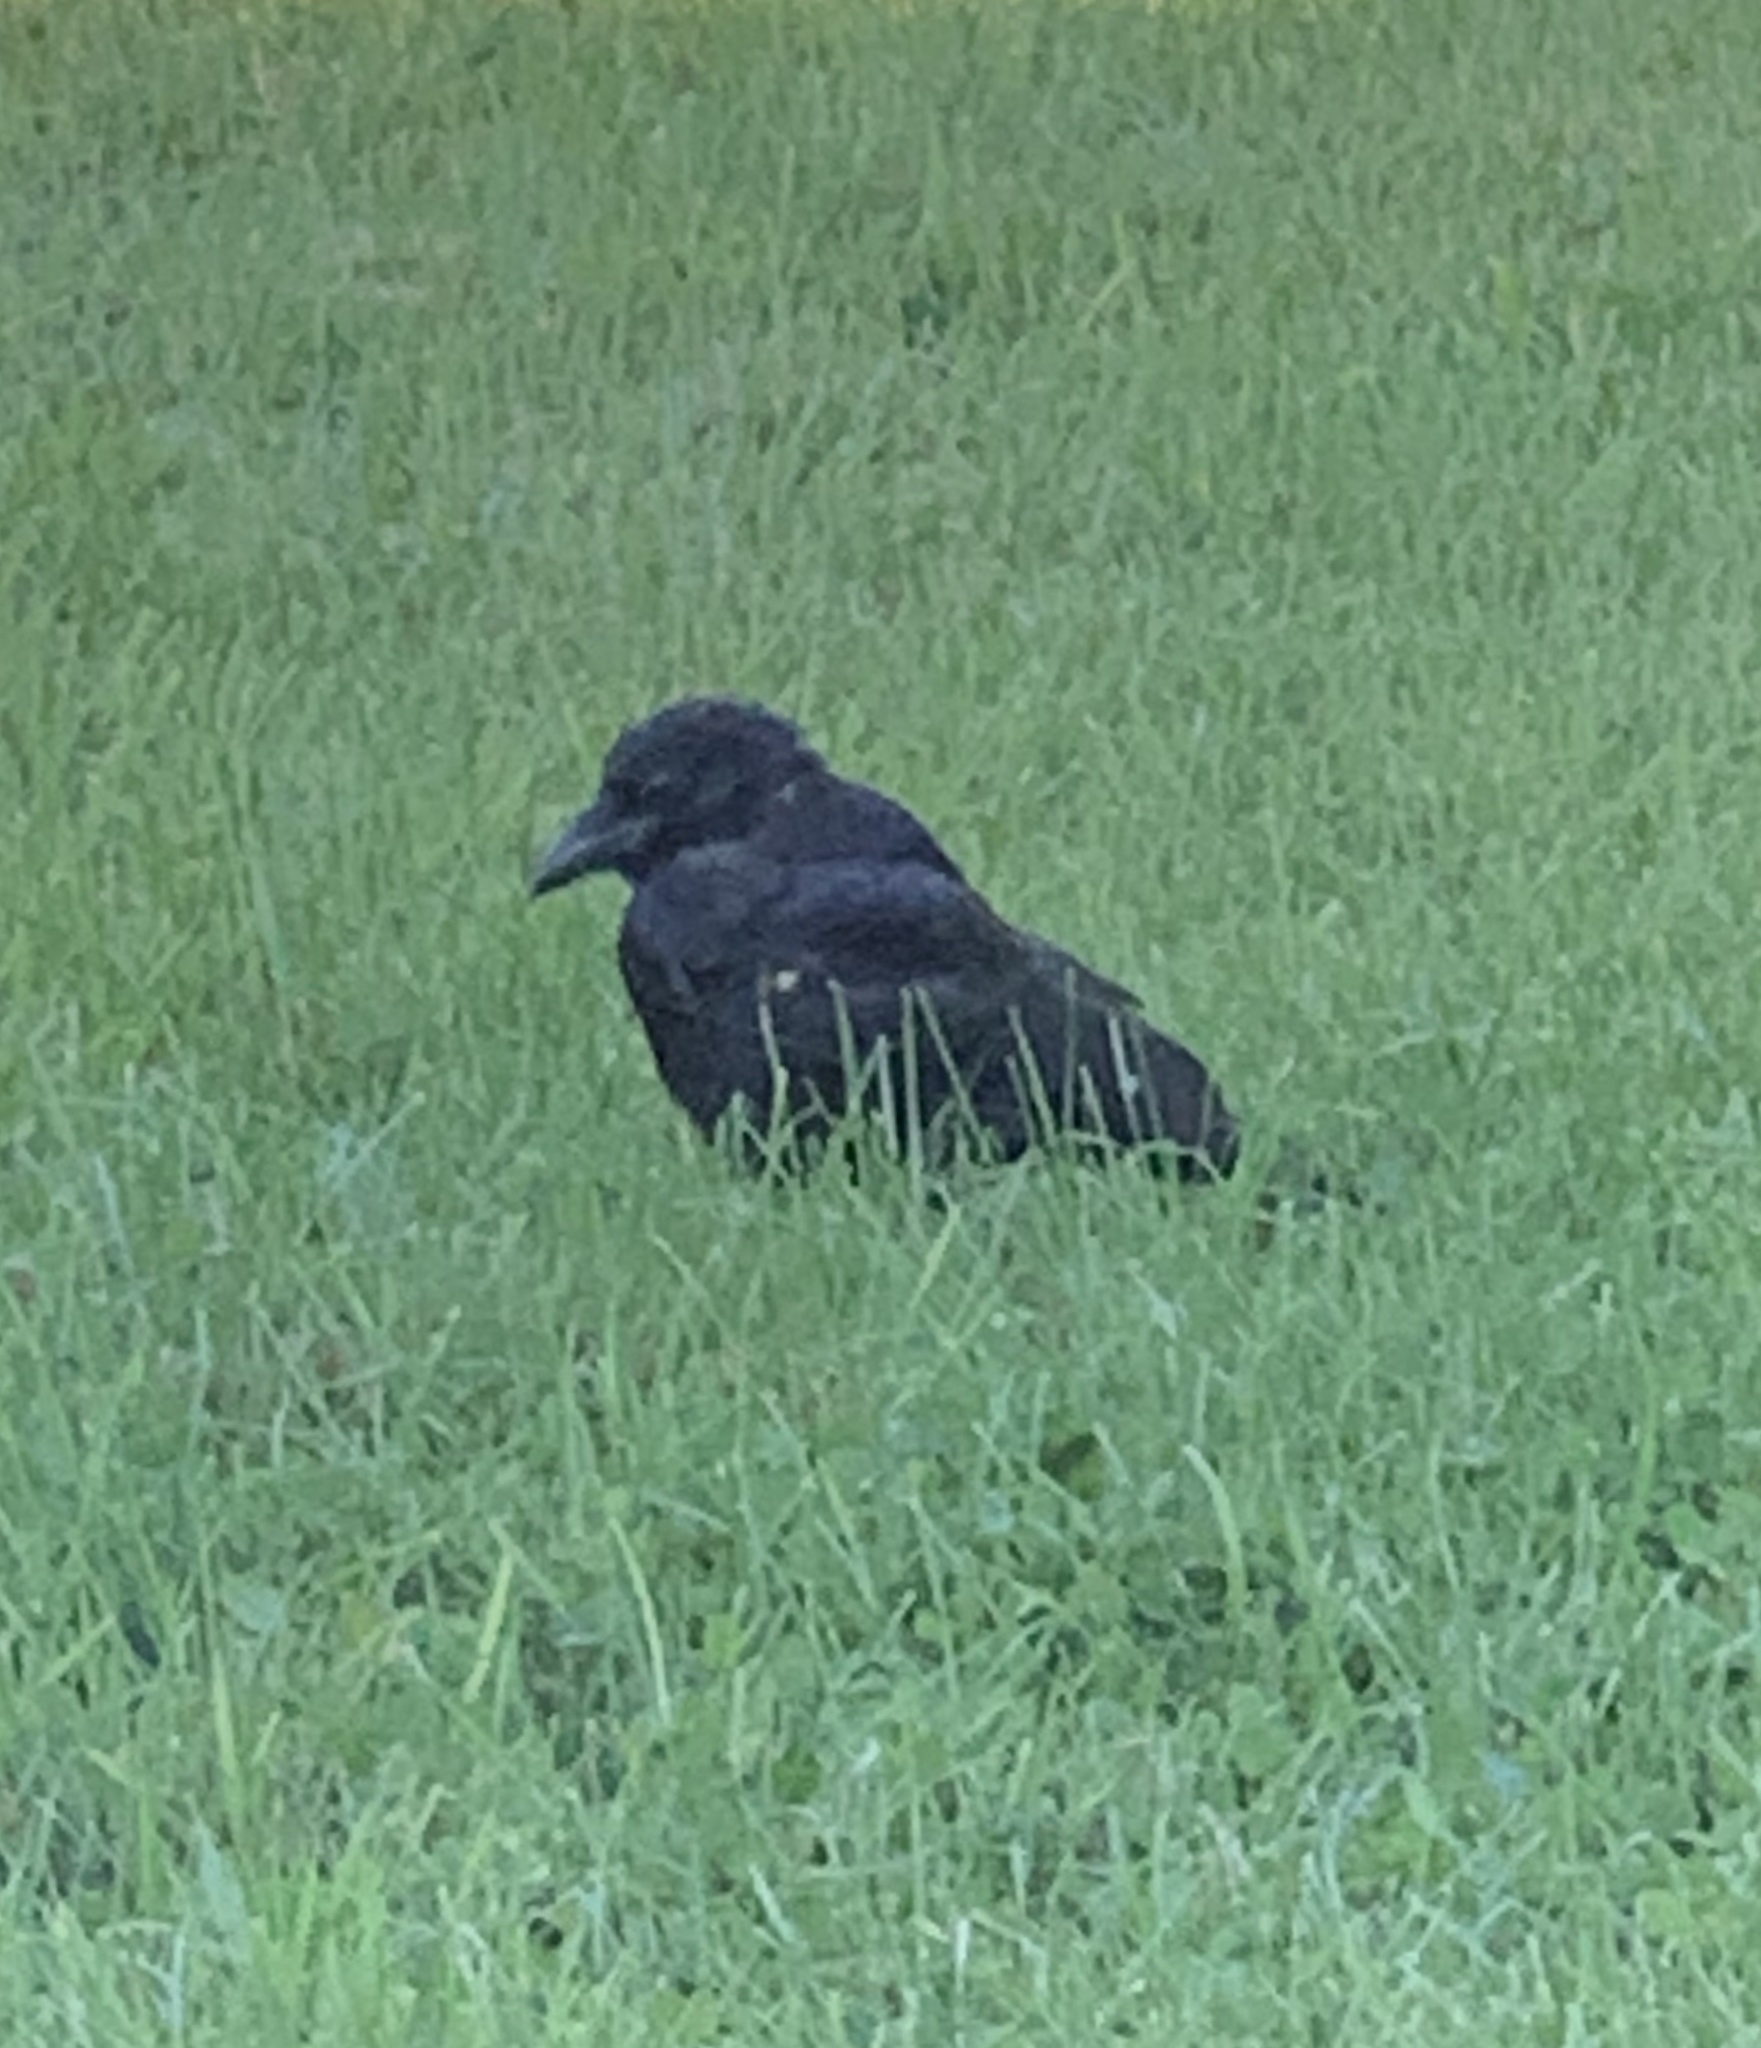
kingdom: Animalia
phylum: Chordata
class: Aves
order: Passeriformes
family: Corvidae
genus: Corvus
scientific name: Corvus corax
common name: Common raven
